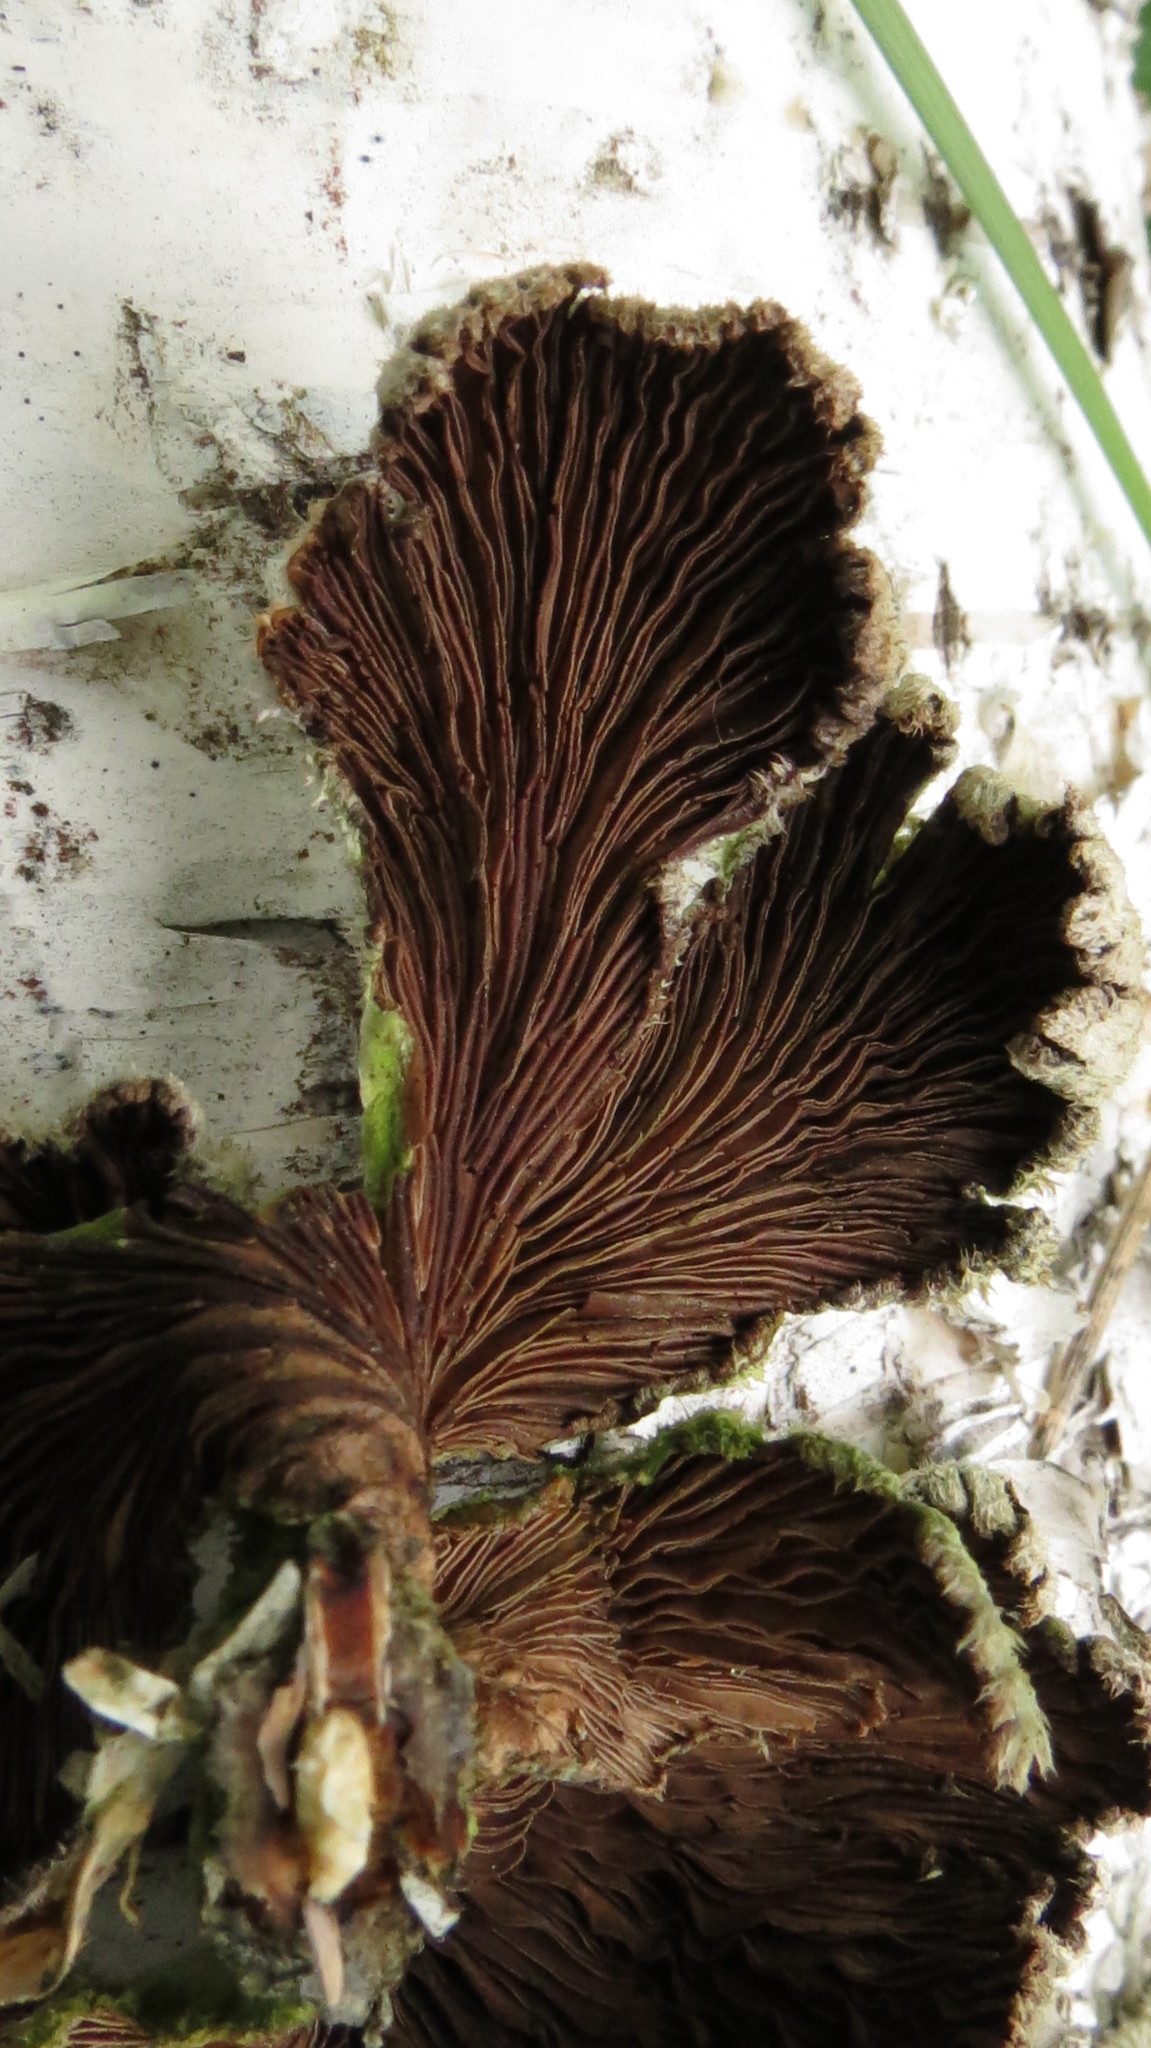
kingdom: Fungi
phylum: Basidiomycota
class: Agaricomycetes
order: Agaricales
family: Schizophyllaceae
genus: Schizophyllum
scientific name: Schizophyllum commune
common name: Common porecrust
